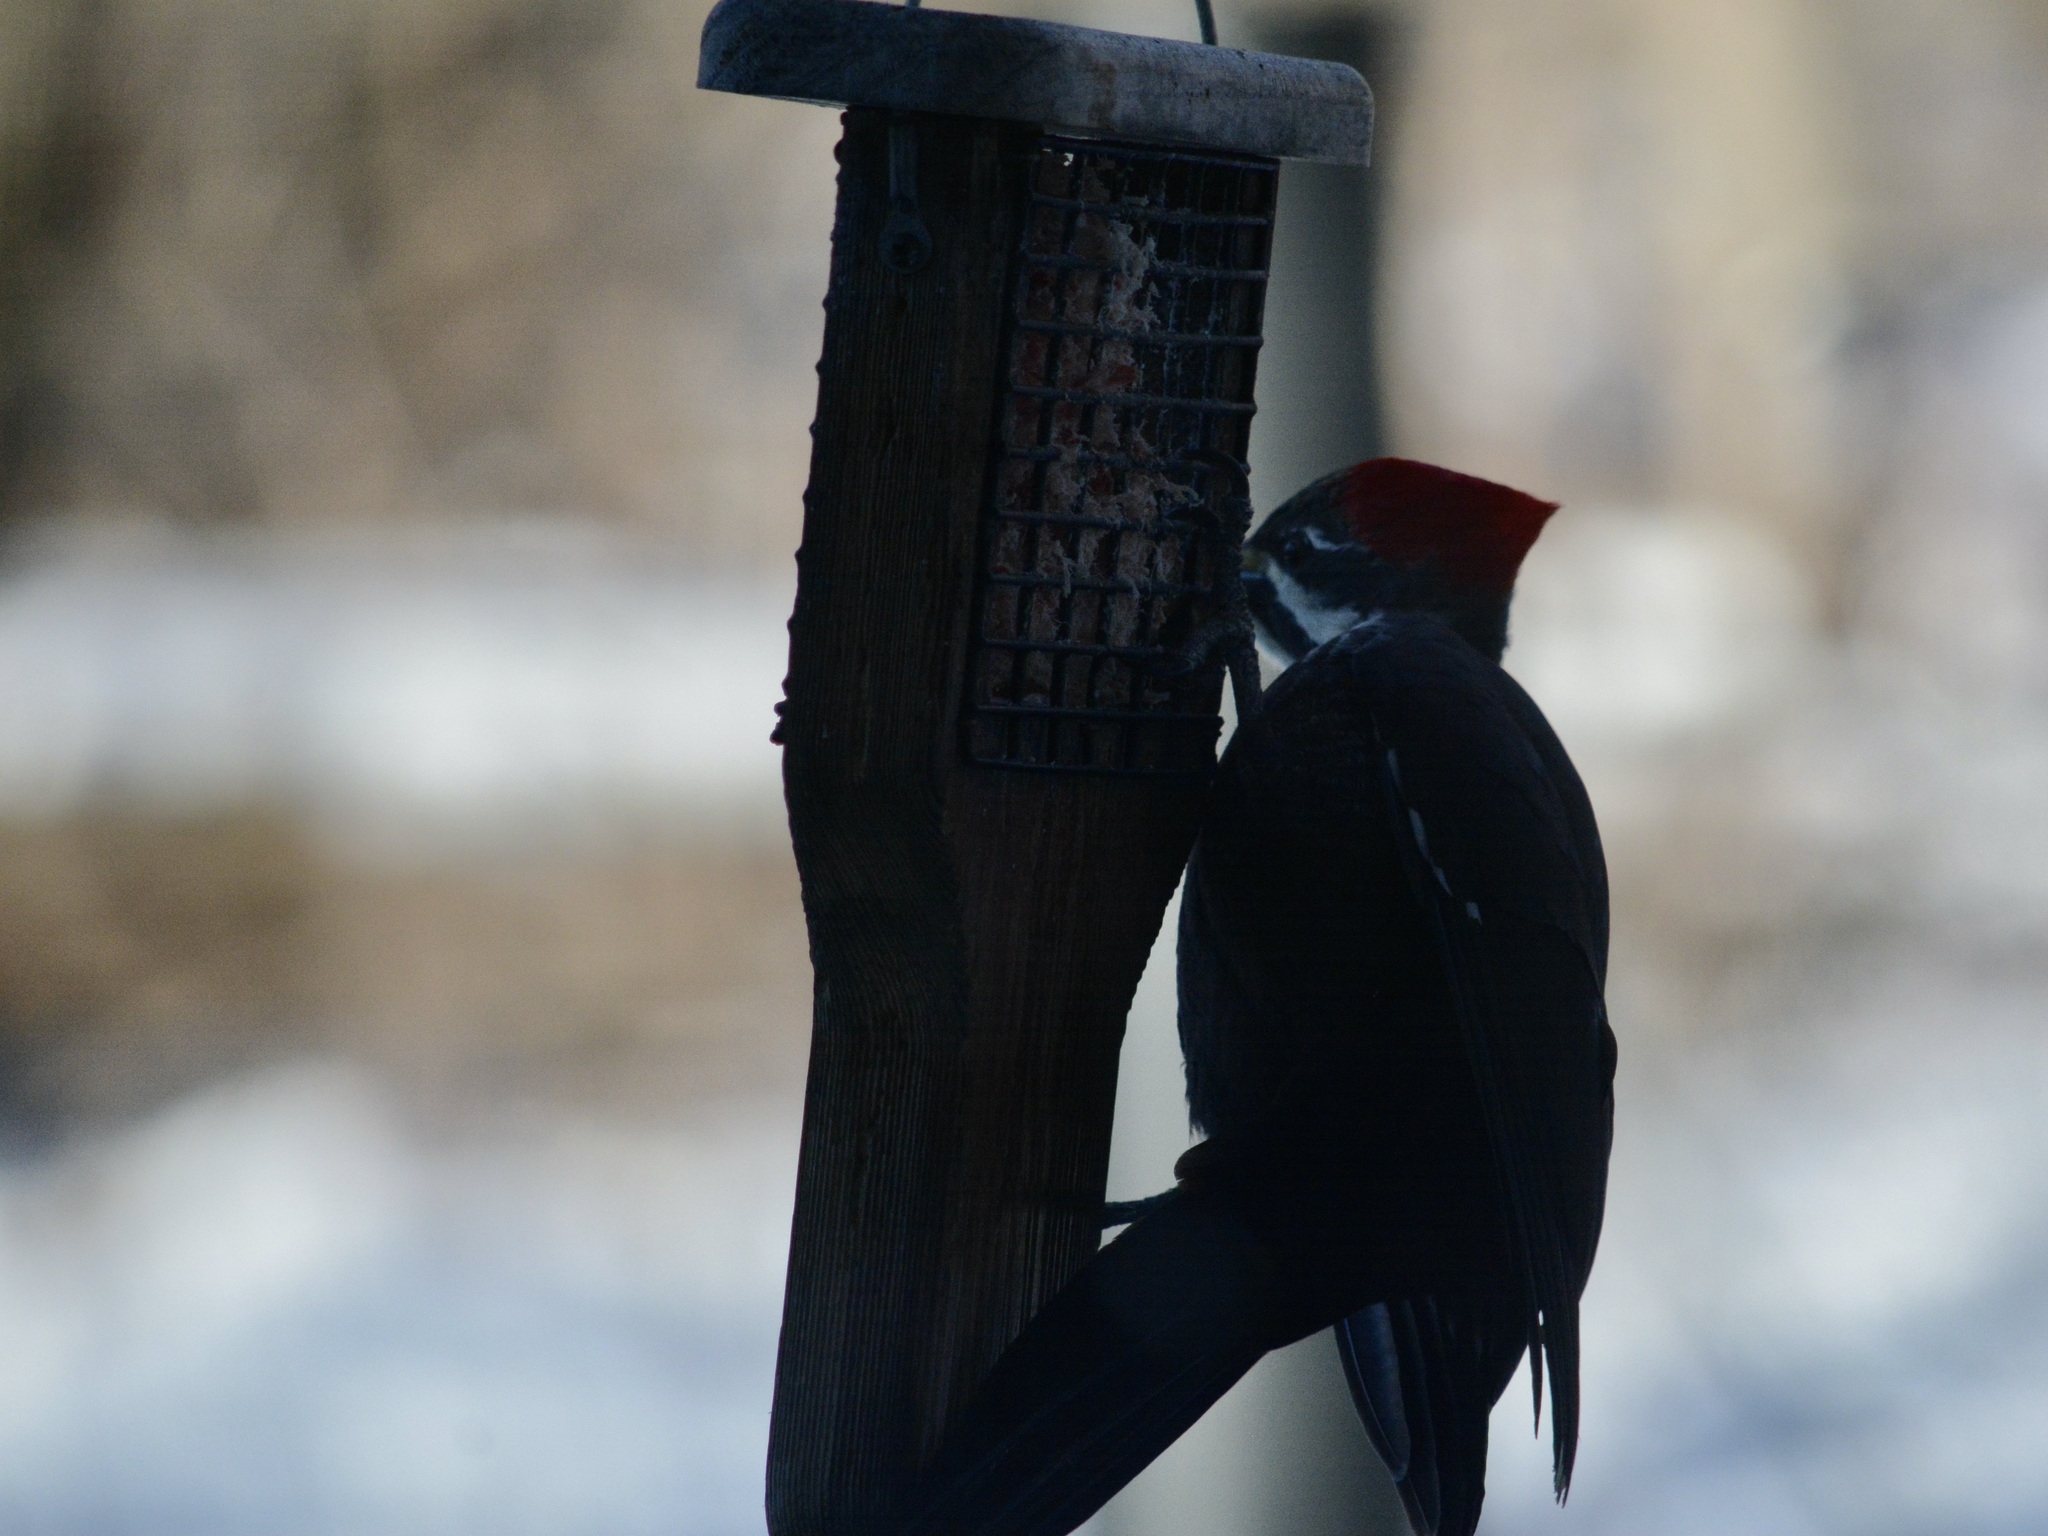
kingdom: Animalia
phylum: Chordata
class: Aves
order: Piciformes
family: Picidae
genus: Dryocopus
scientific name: Dryocopus pileatus
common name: Pileated woodpecker
